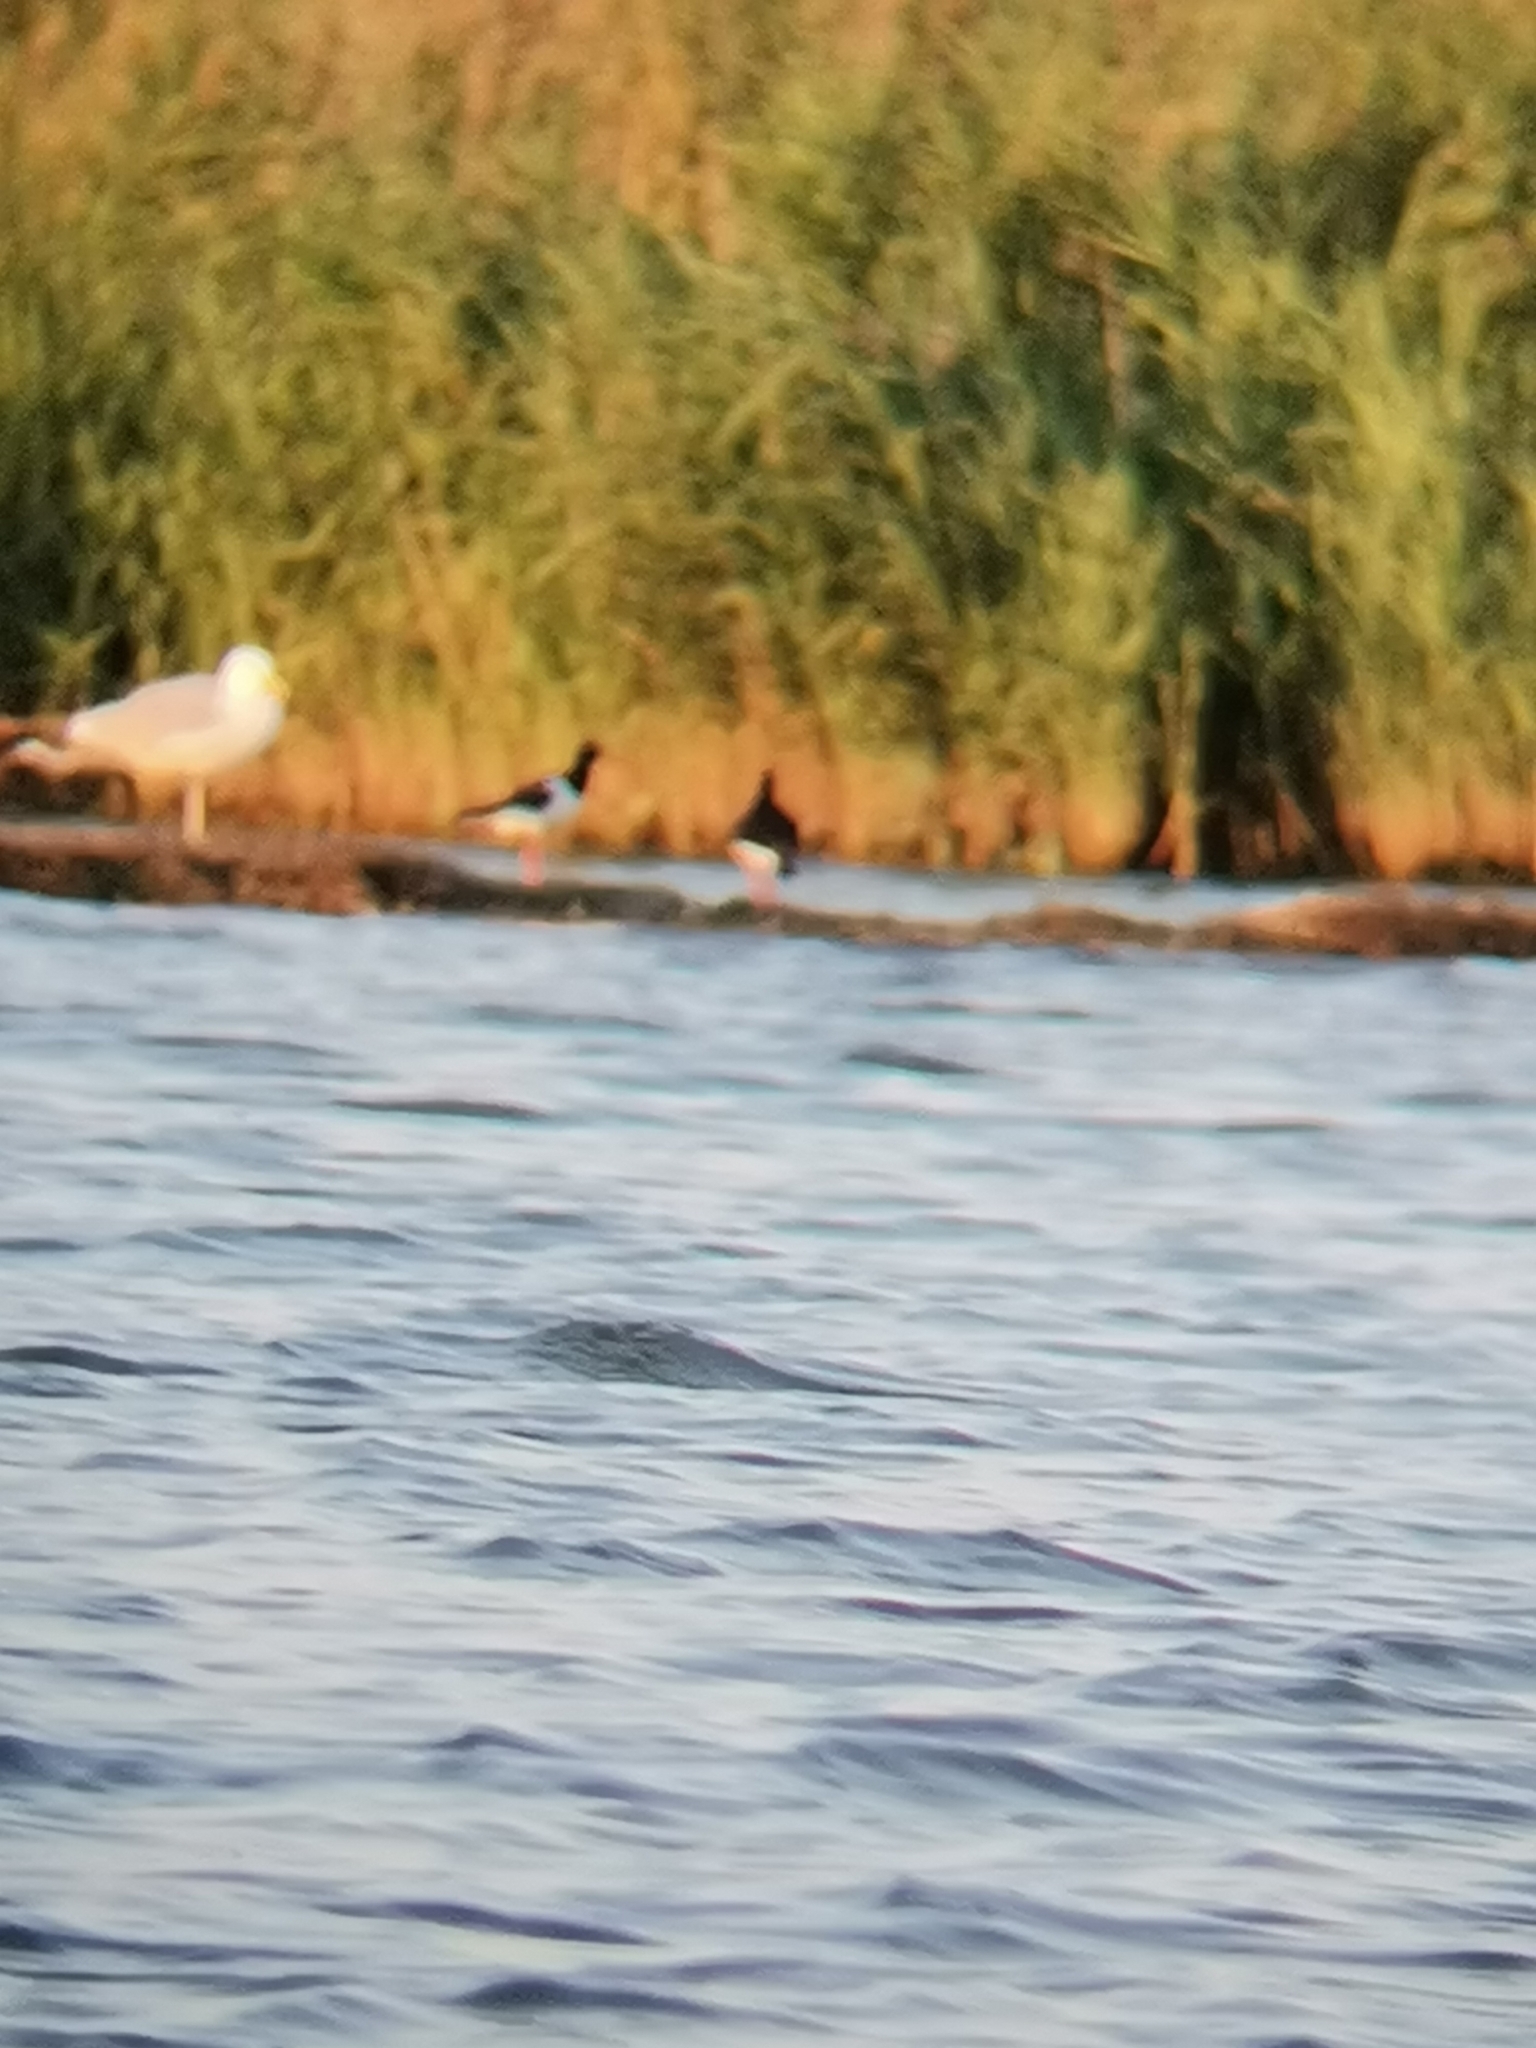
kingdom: Animalia
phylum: Chordata
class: Aves
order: Charadriiformes
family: Haematopodidae
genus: Haematopus
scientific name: Haematopus ostralegus
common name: Eurasian oystercatcher
